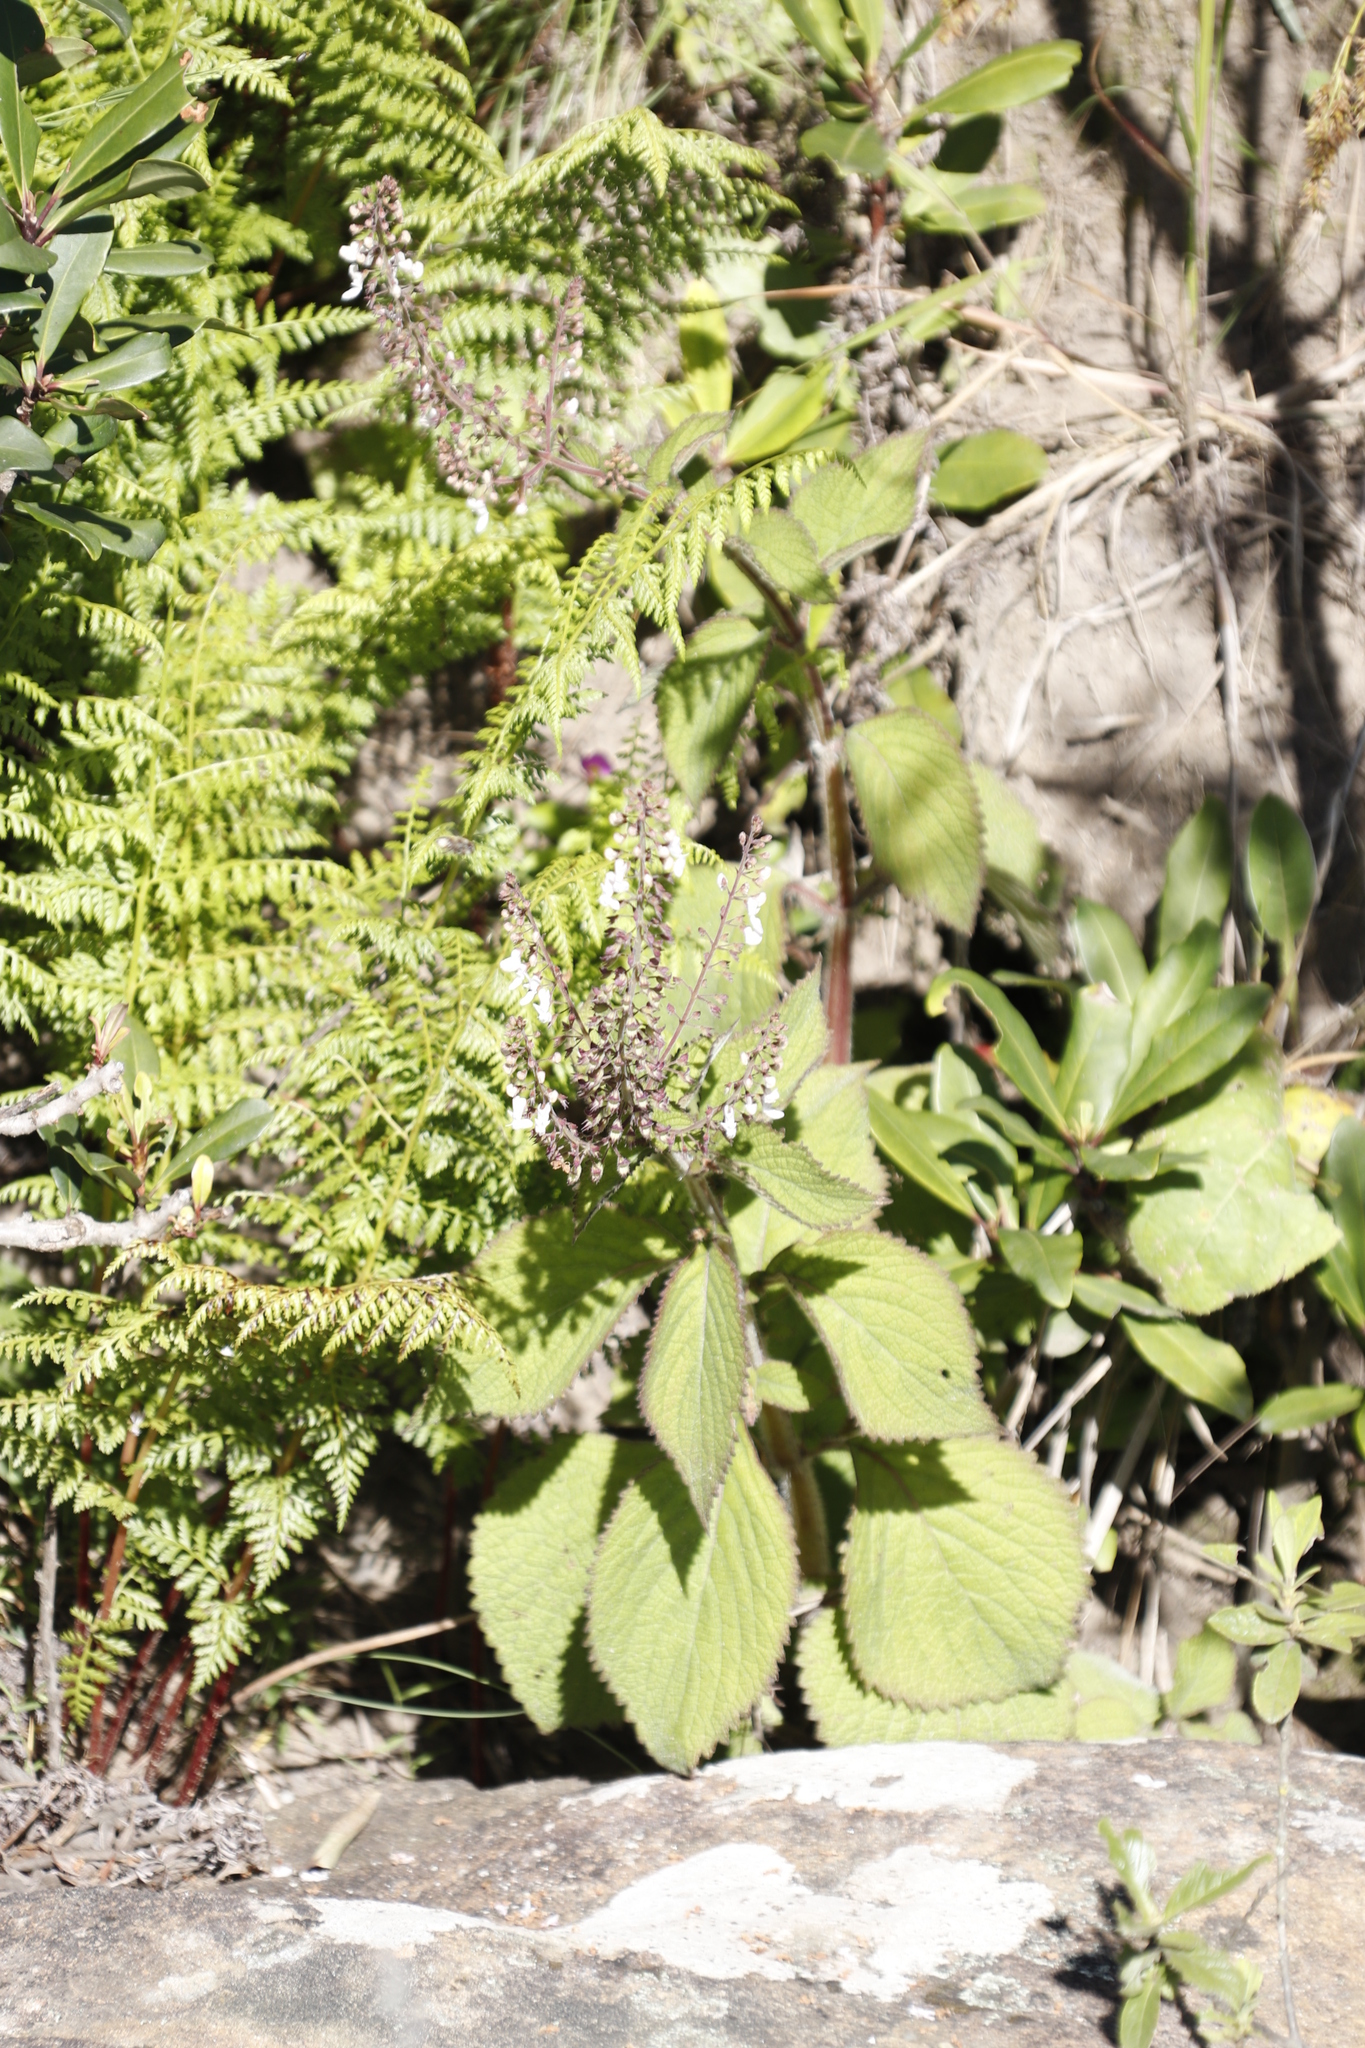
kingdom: Plantae
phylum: Tracheophyta
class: Magnoliopsida
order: Lamiales
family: Lamiaceae
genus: Plectranthus
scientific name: Plectranthus grallatus
